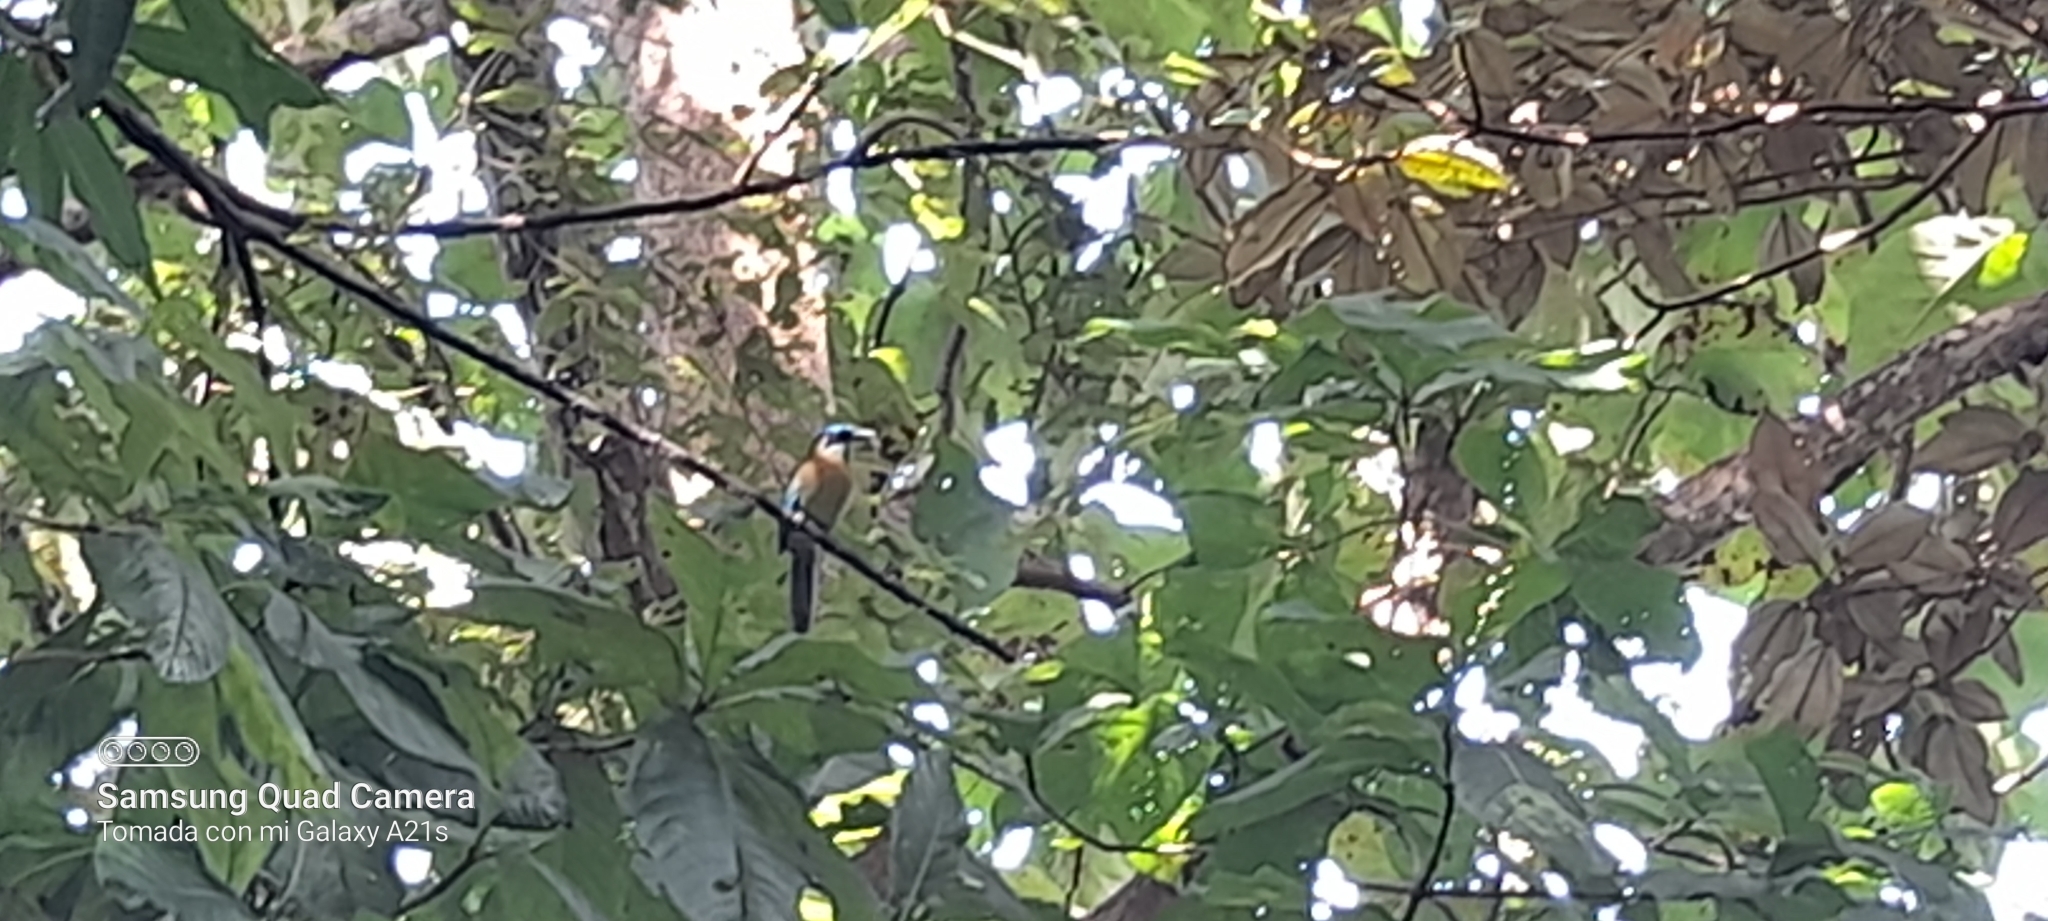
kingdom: Animalia
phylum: Chordata
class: Aves
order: Coraciiformes
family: Momotidae
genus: Momotus
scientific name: Momotus lessonii
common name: Lesson's motmot
